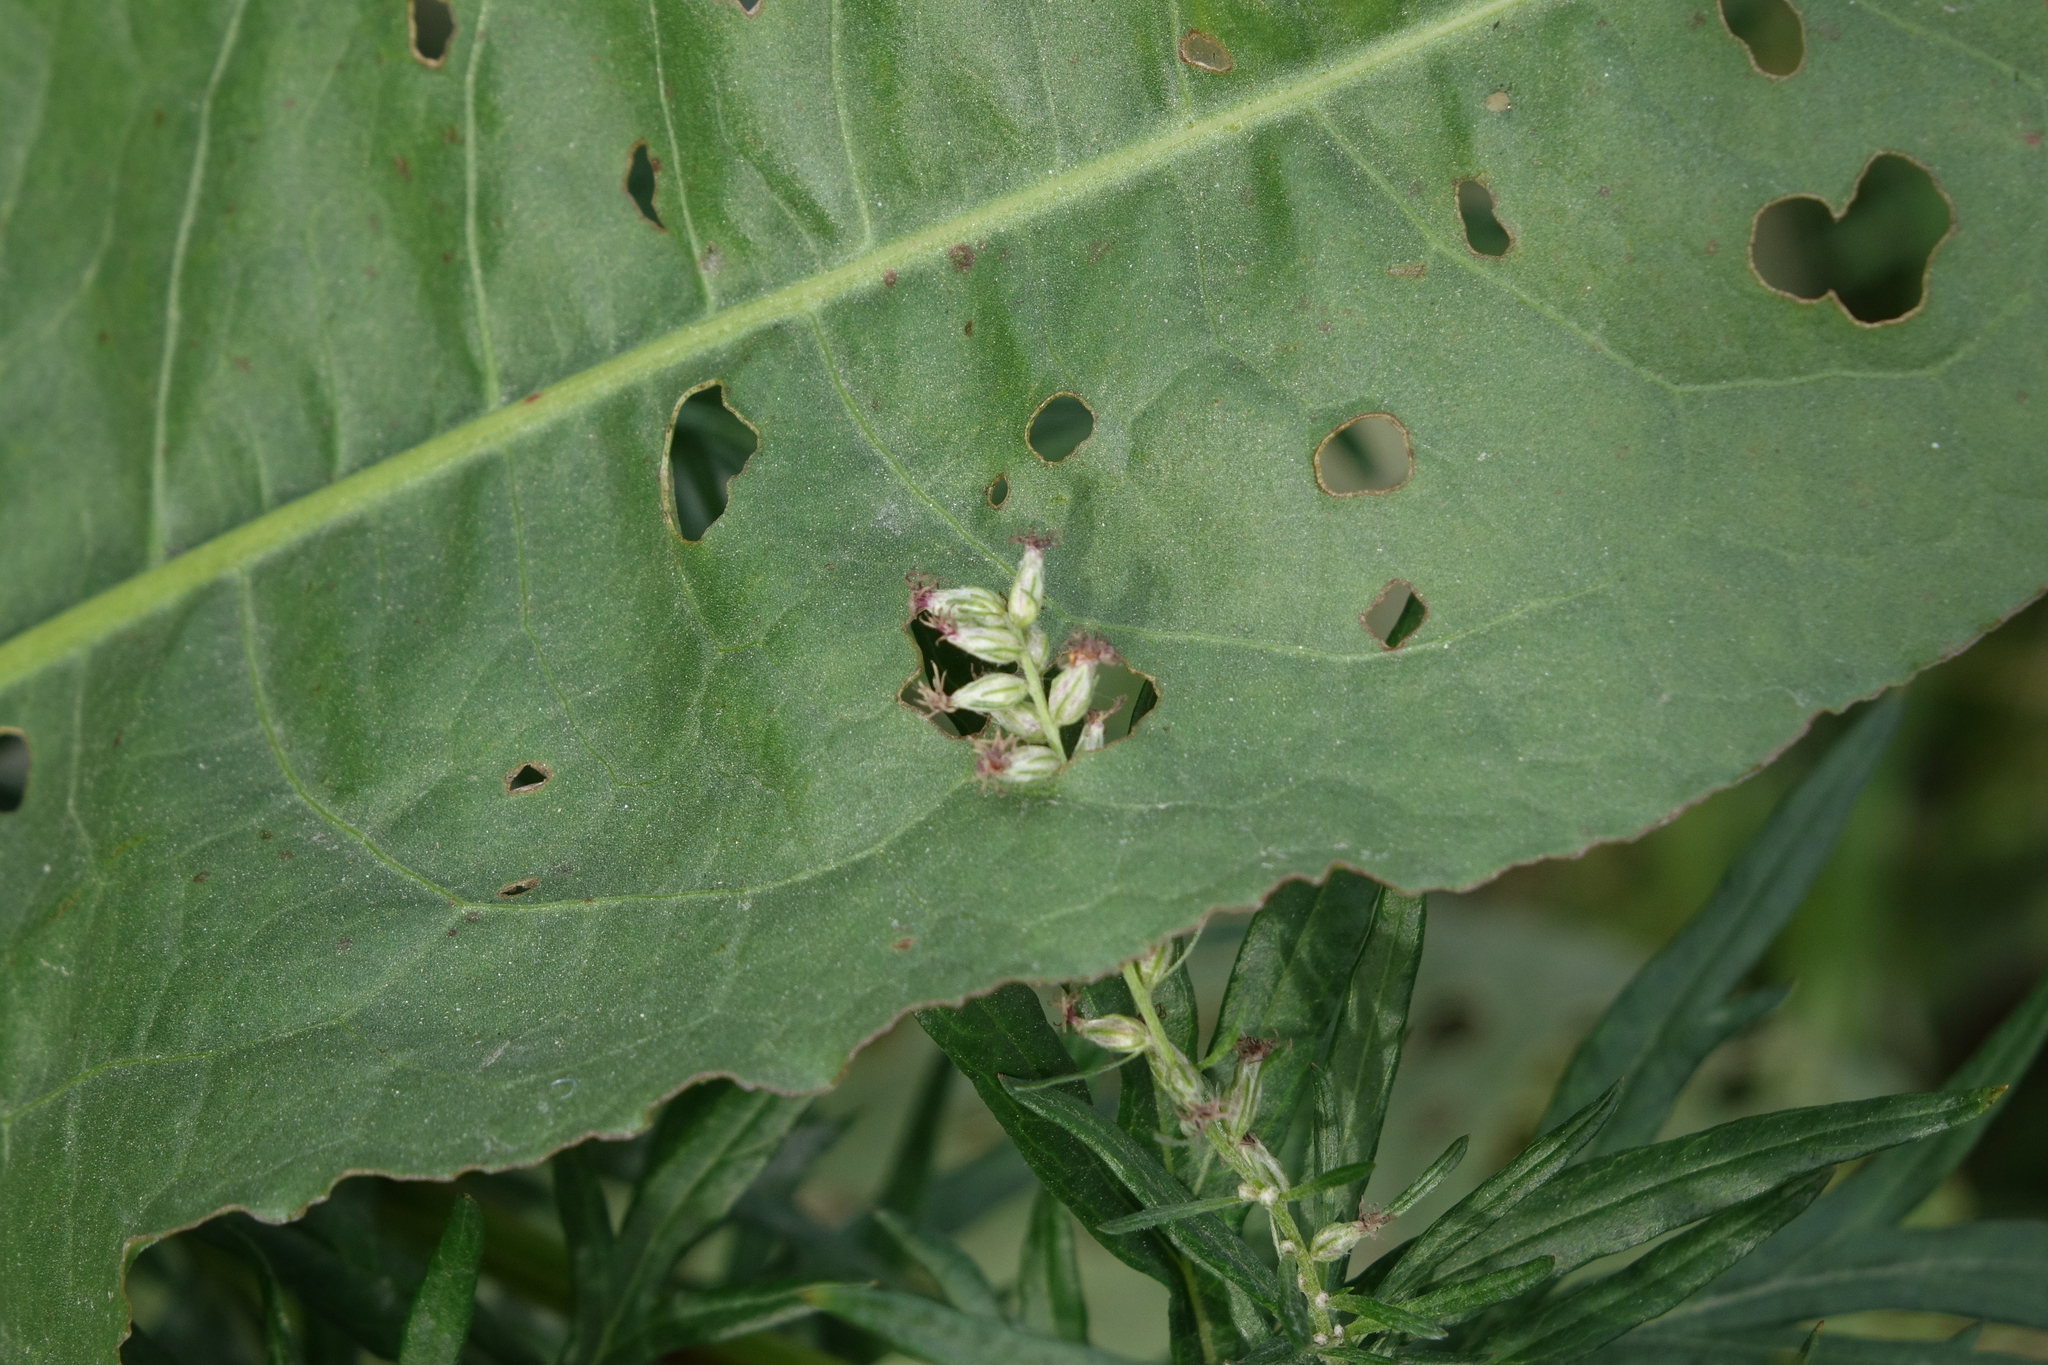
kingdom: Plantae
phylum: Tracheophyta
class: Magnoliopsida
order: Asterales
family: Asteraceae
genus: Artemisia
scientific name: Artemisia vulgaris
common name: Mugwort
